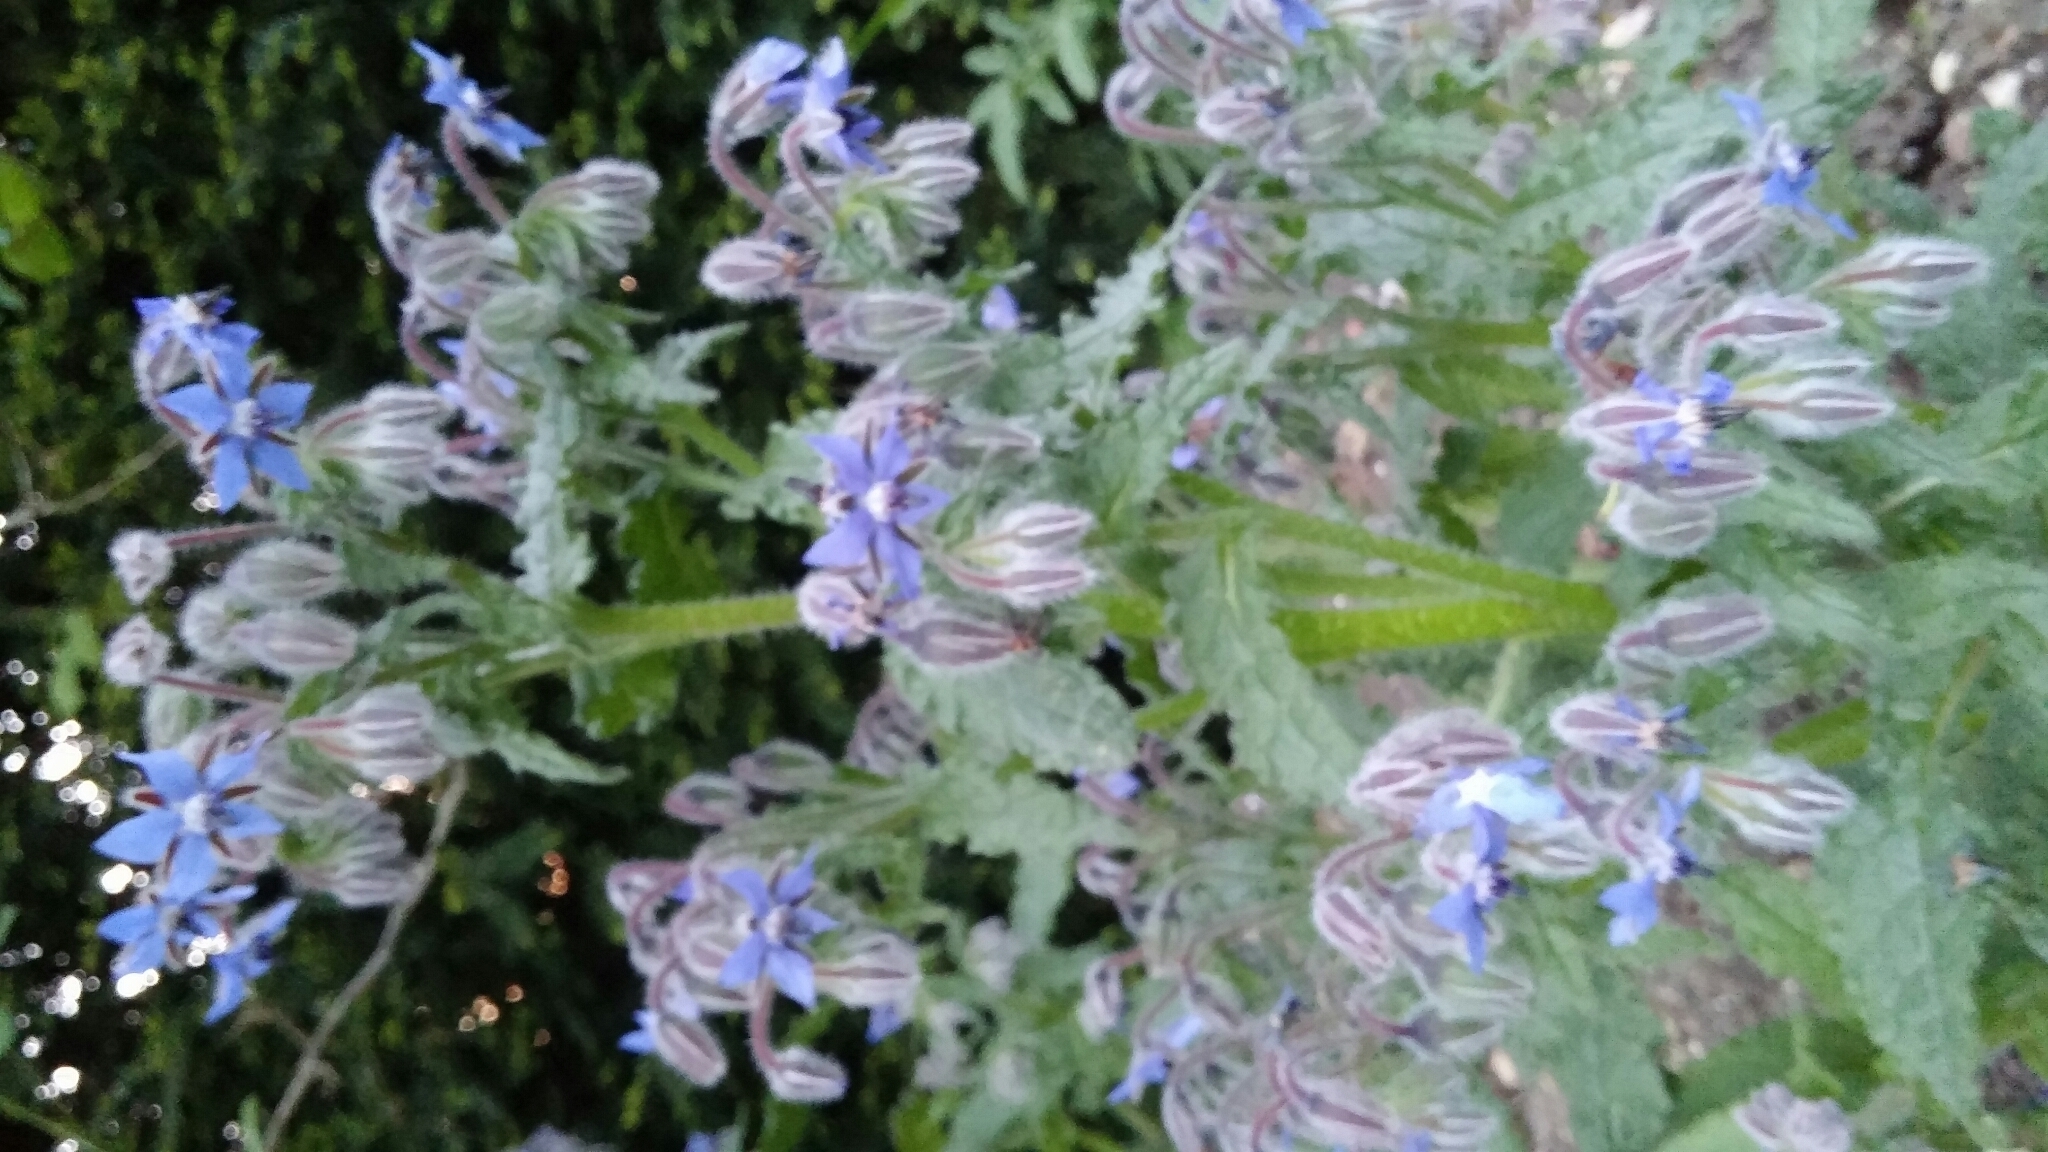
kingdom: Plantae
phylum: Tracheophyta
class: Magnoliopsida
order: Boraginales
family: Boraginaceae
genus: Borago
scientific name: Borago officinalis
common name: Borage
